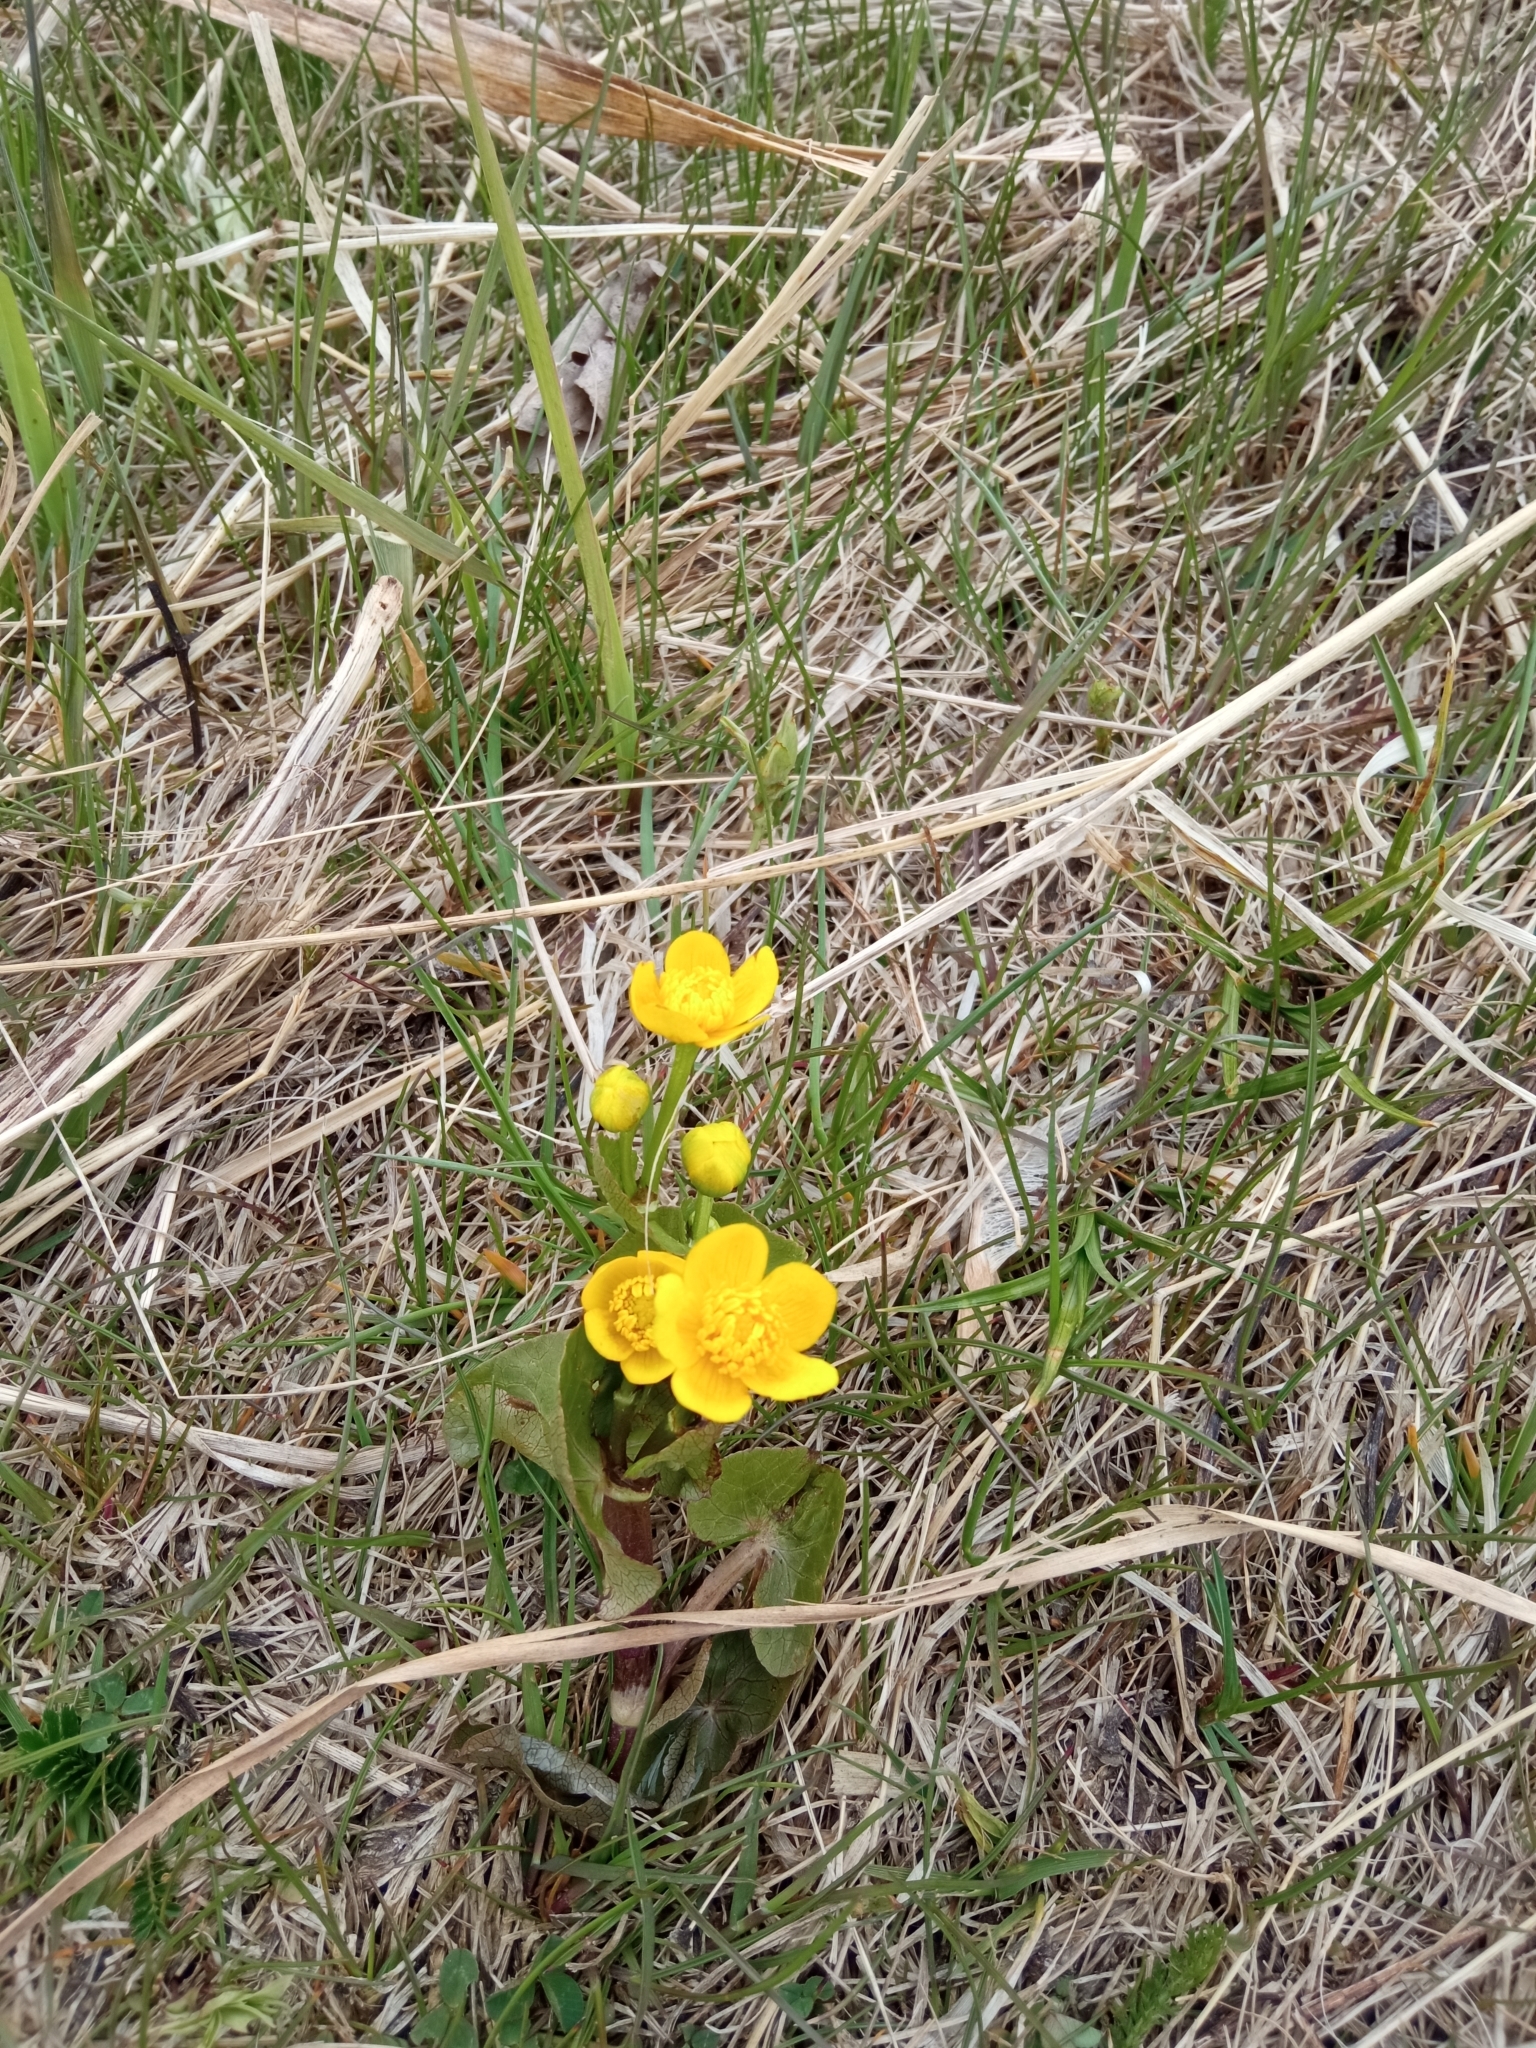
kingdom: Plantae
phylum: Tracheophyta
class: Magnoliopsida
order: Ranunculales
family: Ranunculaceae
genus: Caltha
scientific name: Caltha palustris
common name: Marsh marigold
